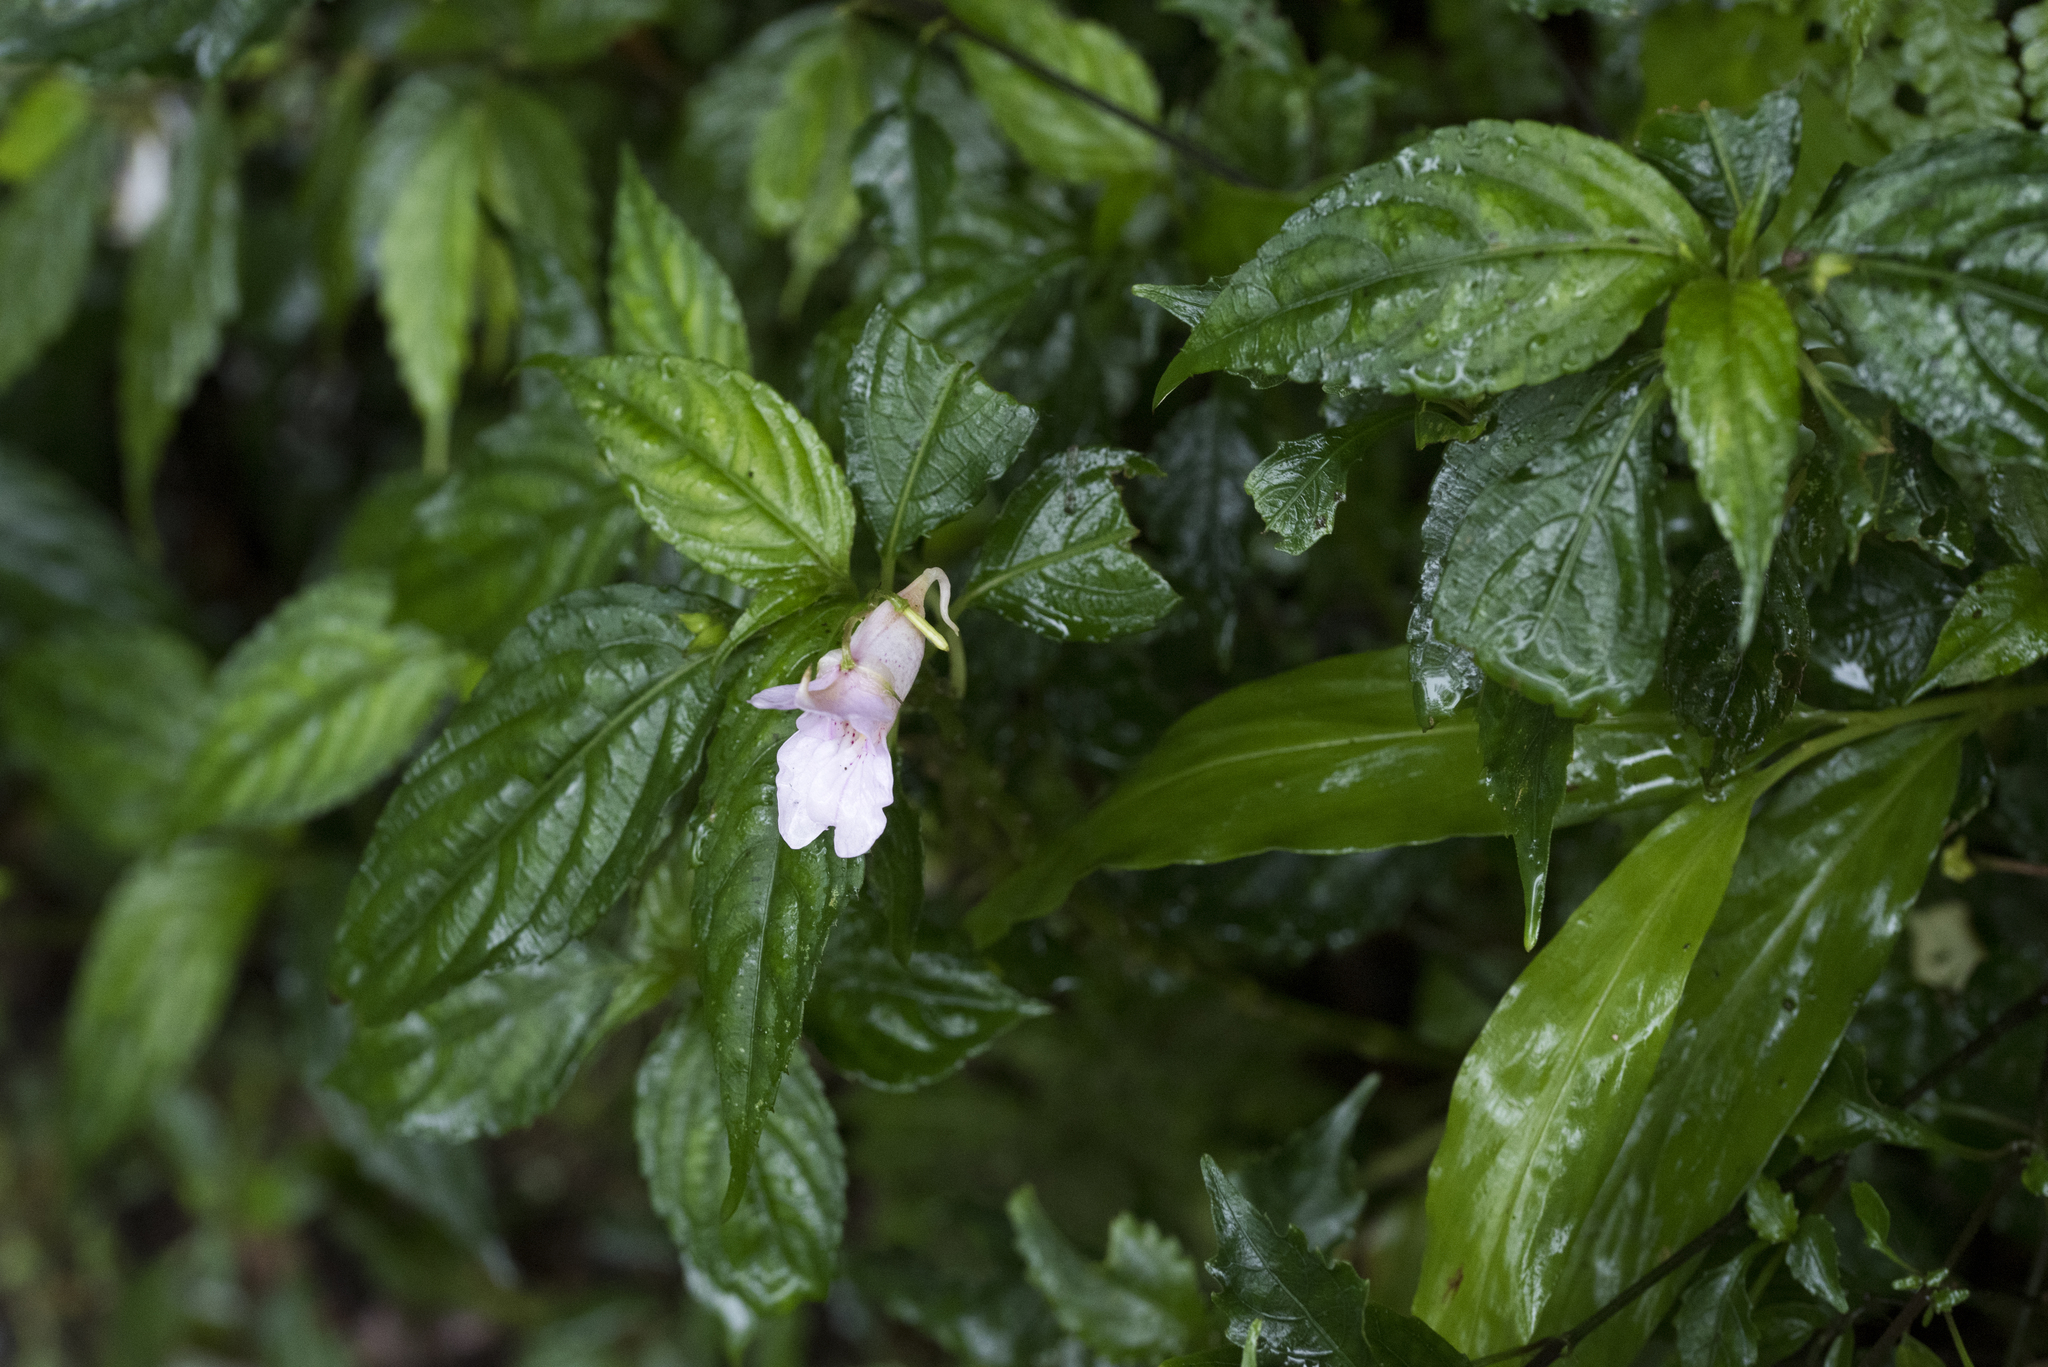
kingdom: Plantae
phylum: Tracheophyta
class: Magnoliopsida
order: Ericales
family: Balsaminaceae
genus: Impatiens
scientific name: Impatiens uniflora
